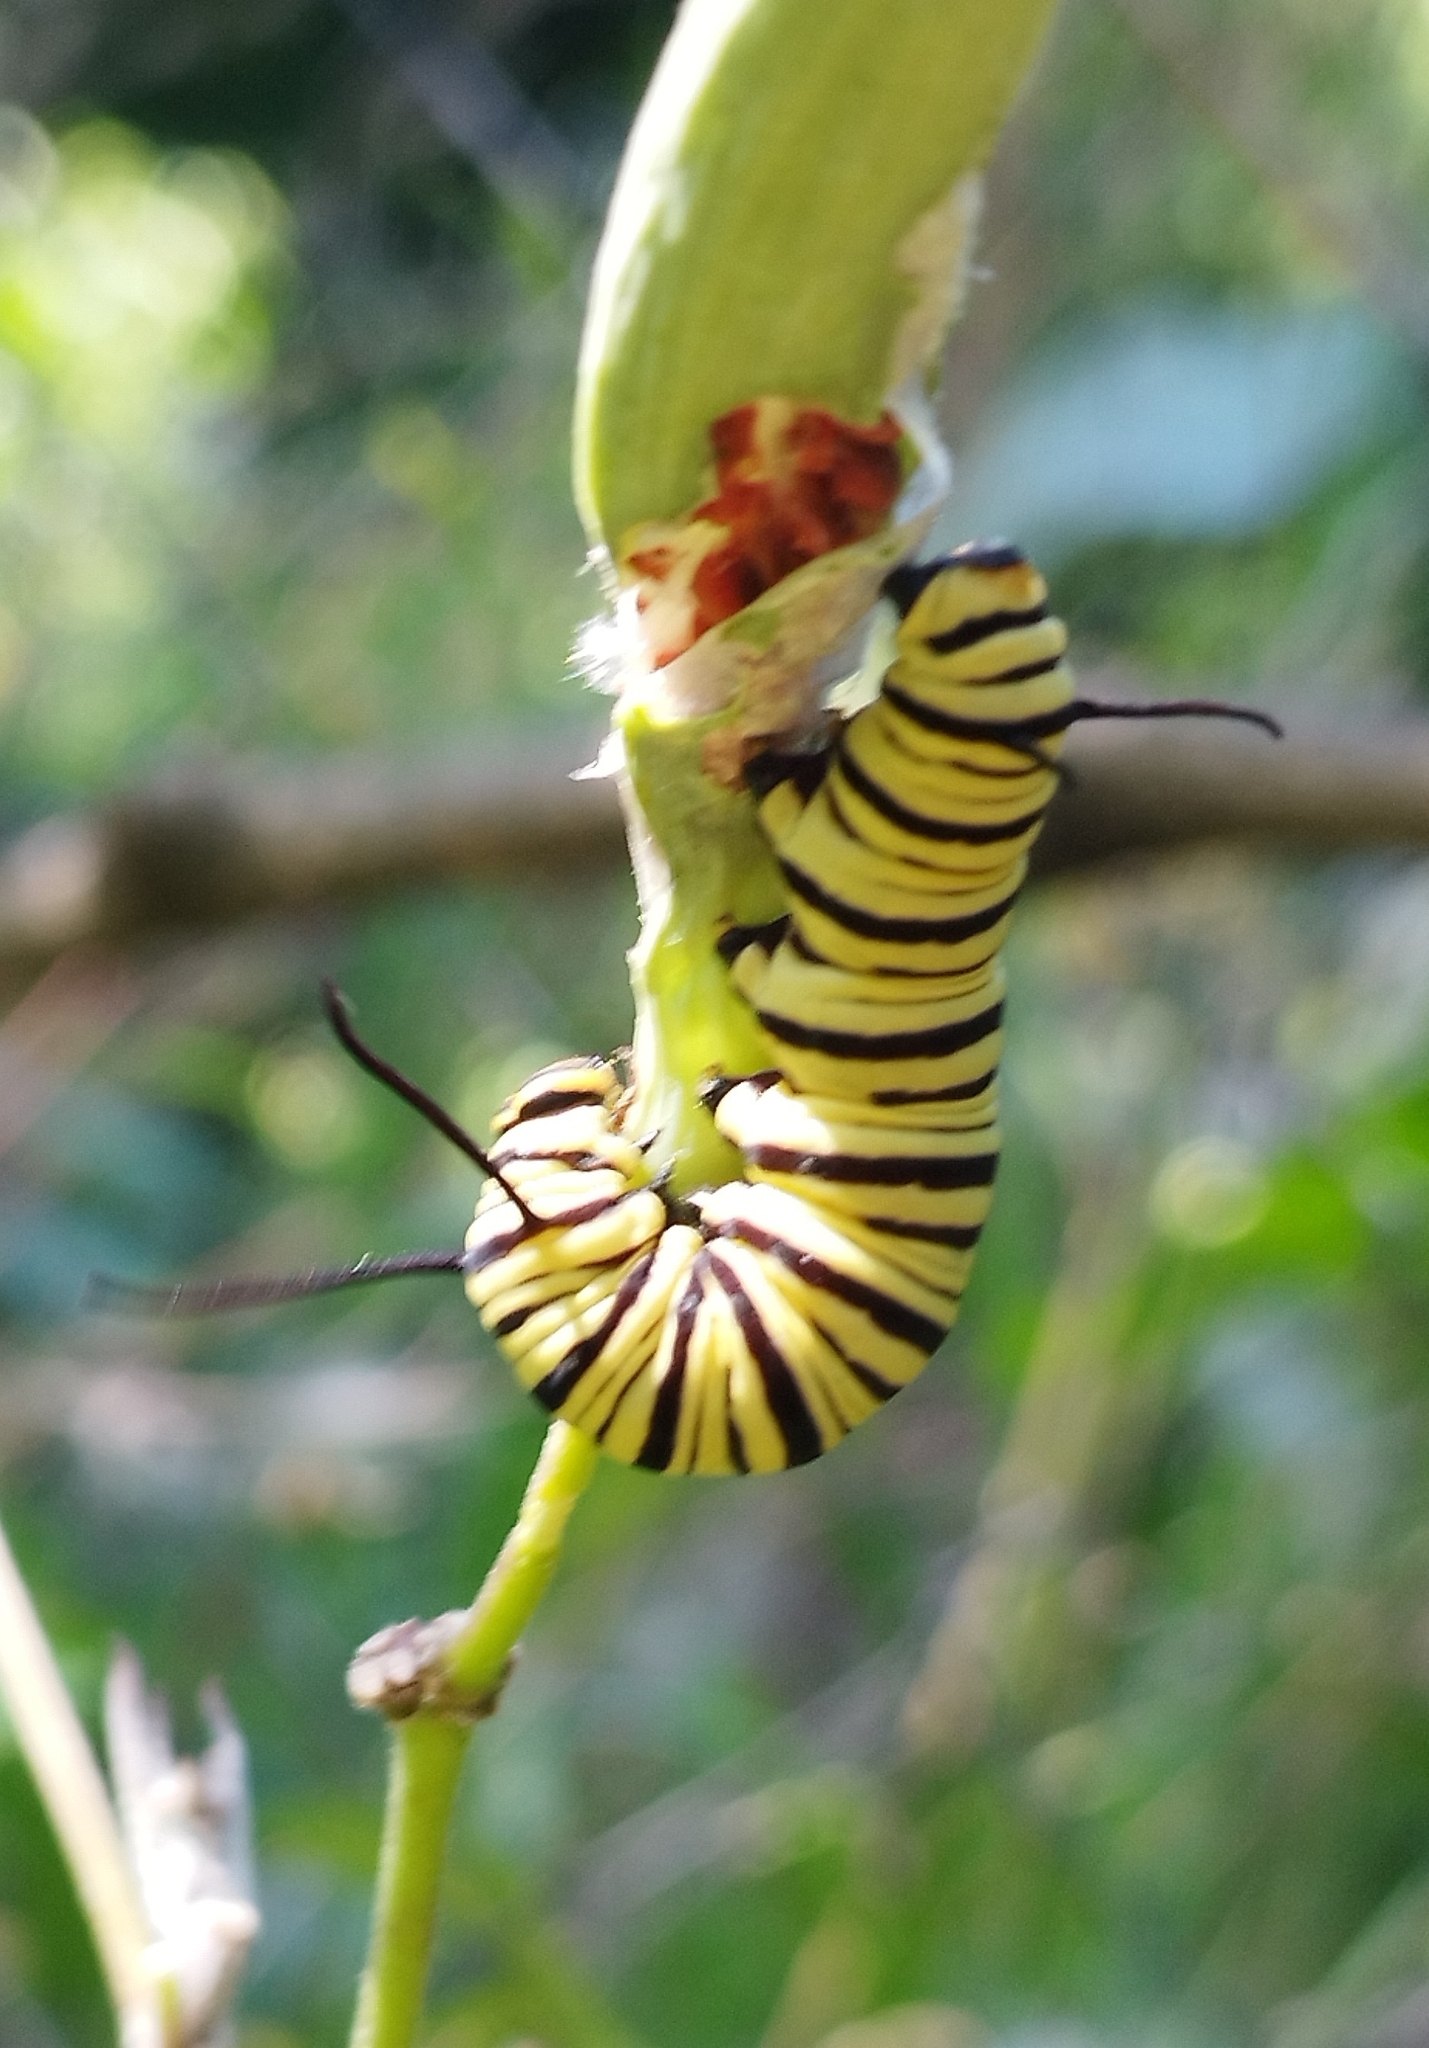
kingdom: Animalia
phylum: Arthropoda
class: Insecta
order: Lepidoptera
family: Nymphalidae
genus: Danaus
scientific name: Danaus erippus
